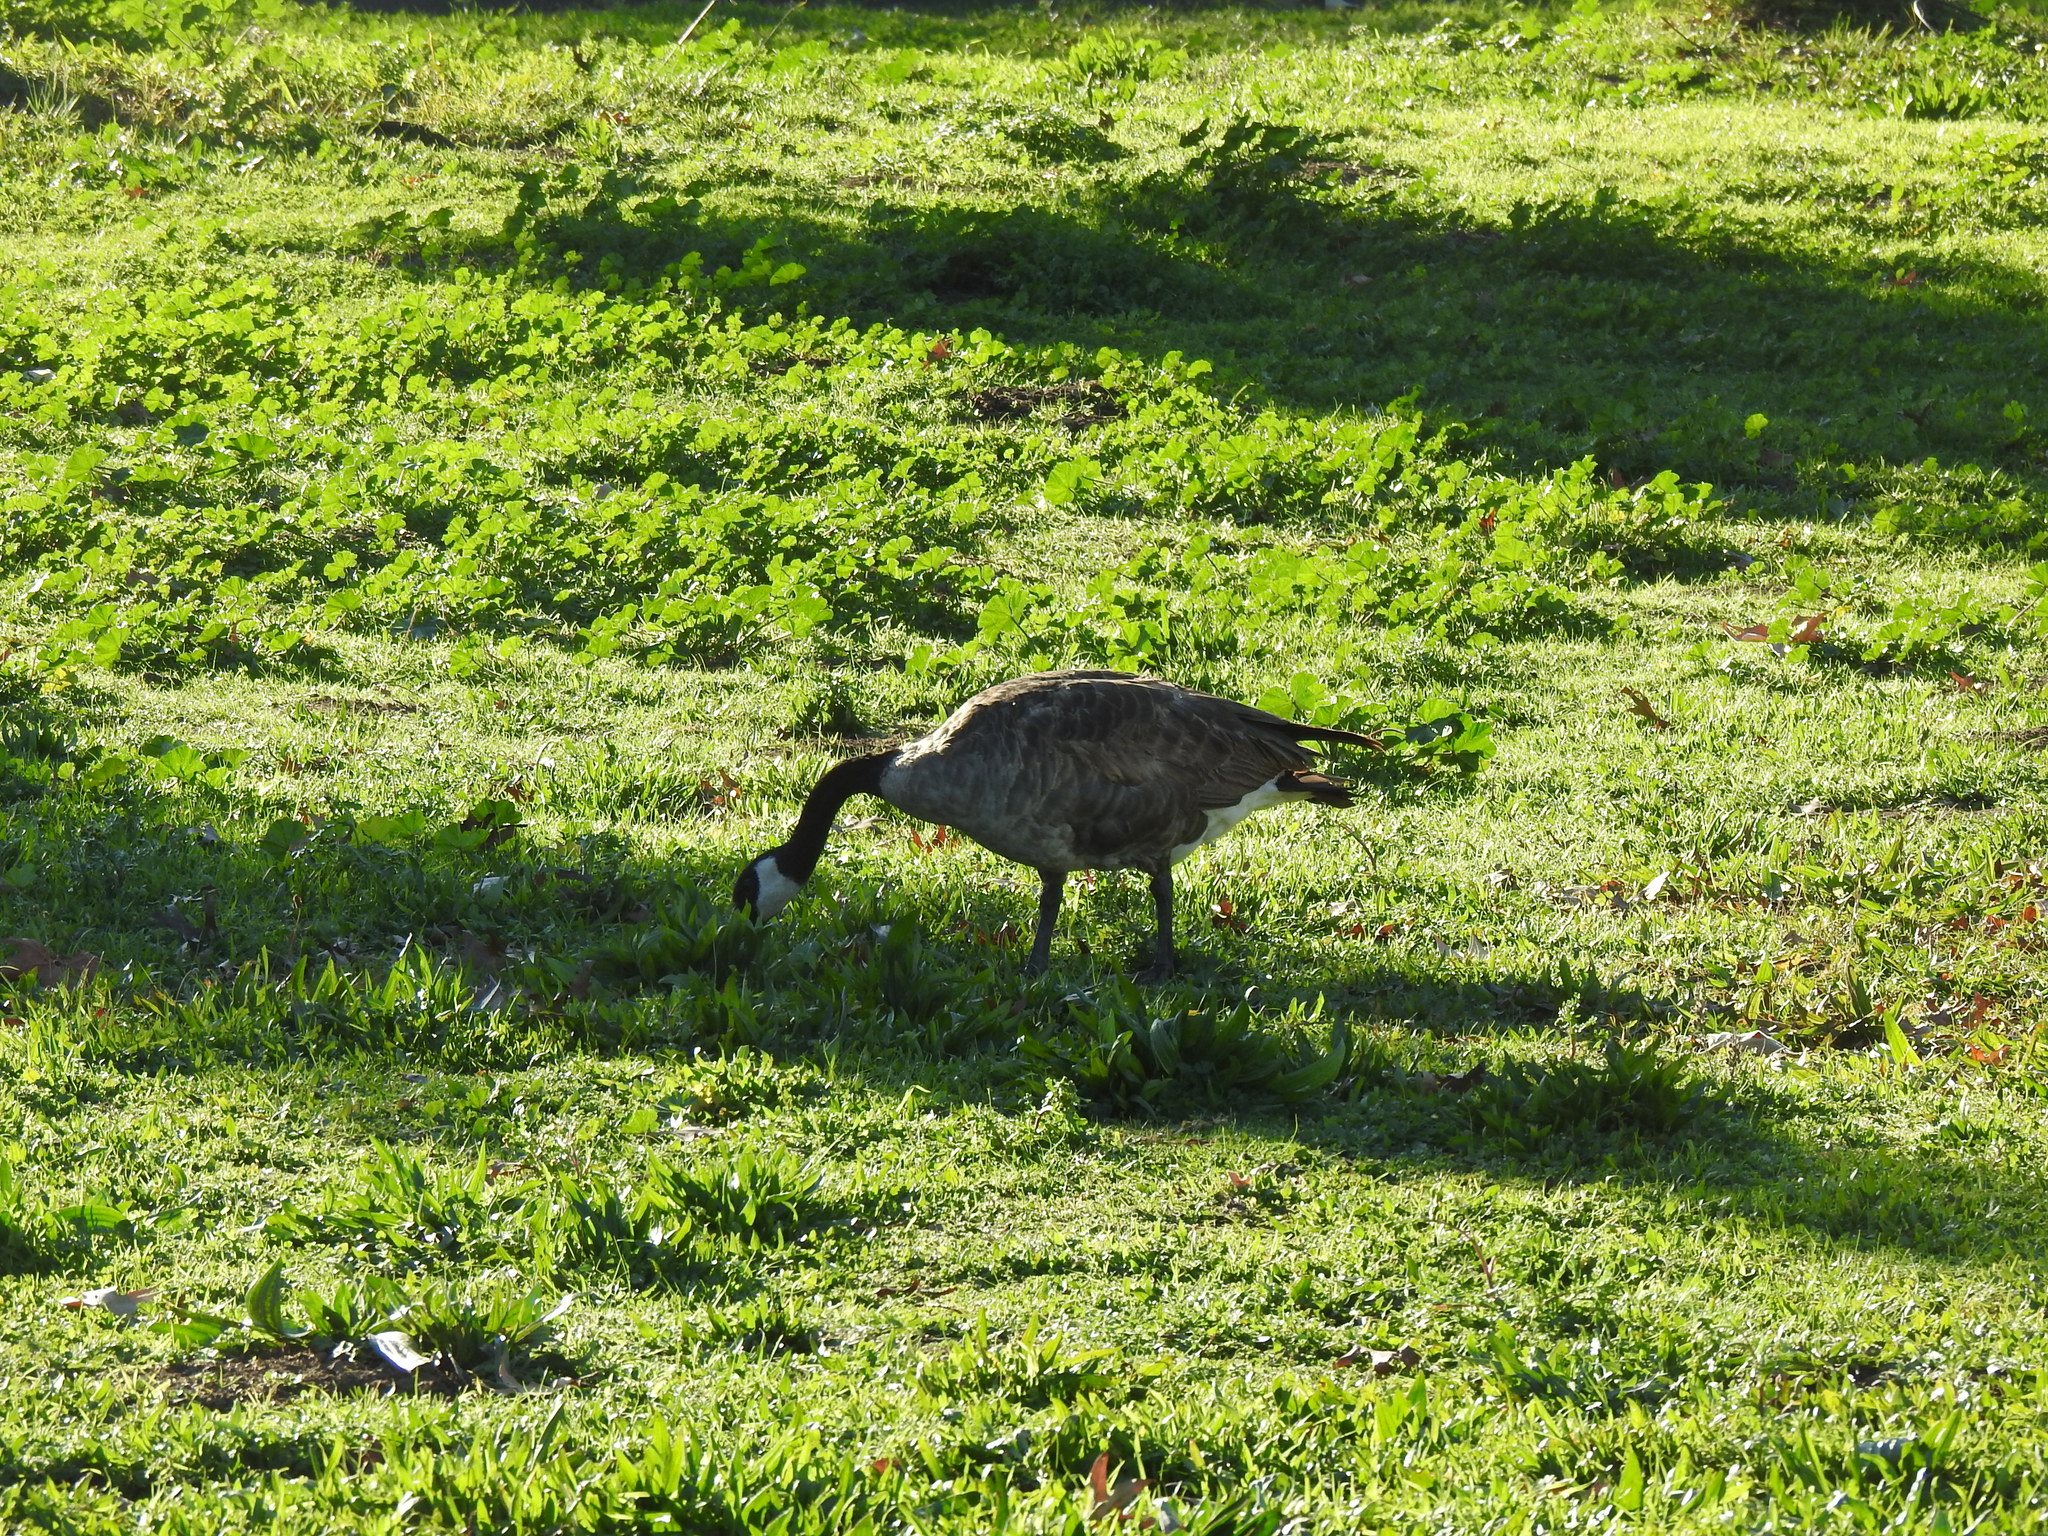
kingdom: Animalia
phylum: Chordata
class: Aves
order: Anseriformes
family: Anatidae
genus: Branta
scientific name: Branta canadensis
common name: Canada goose
